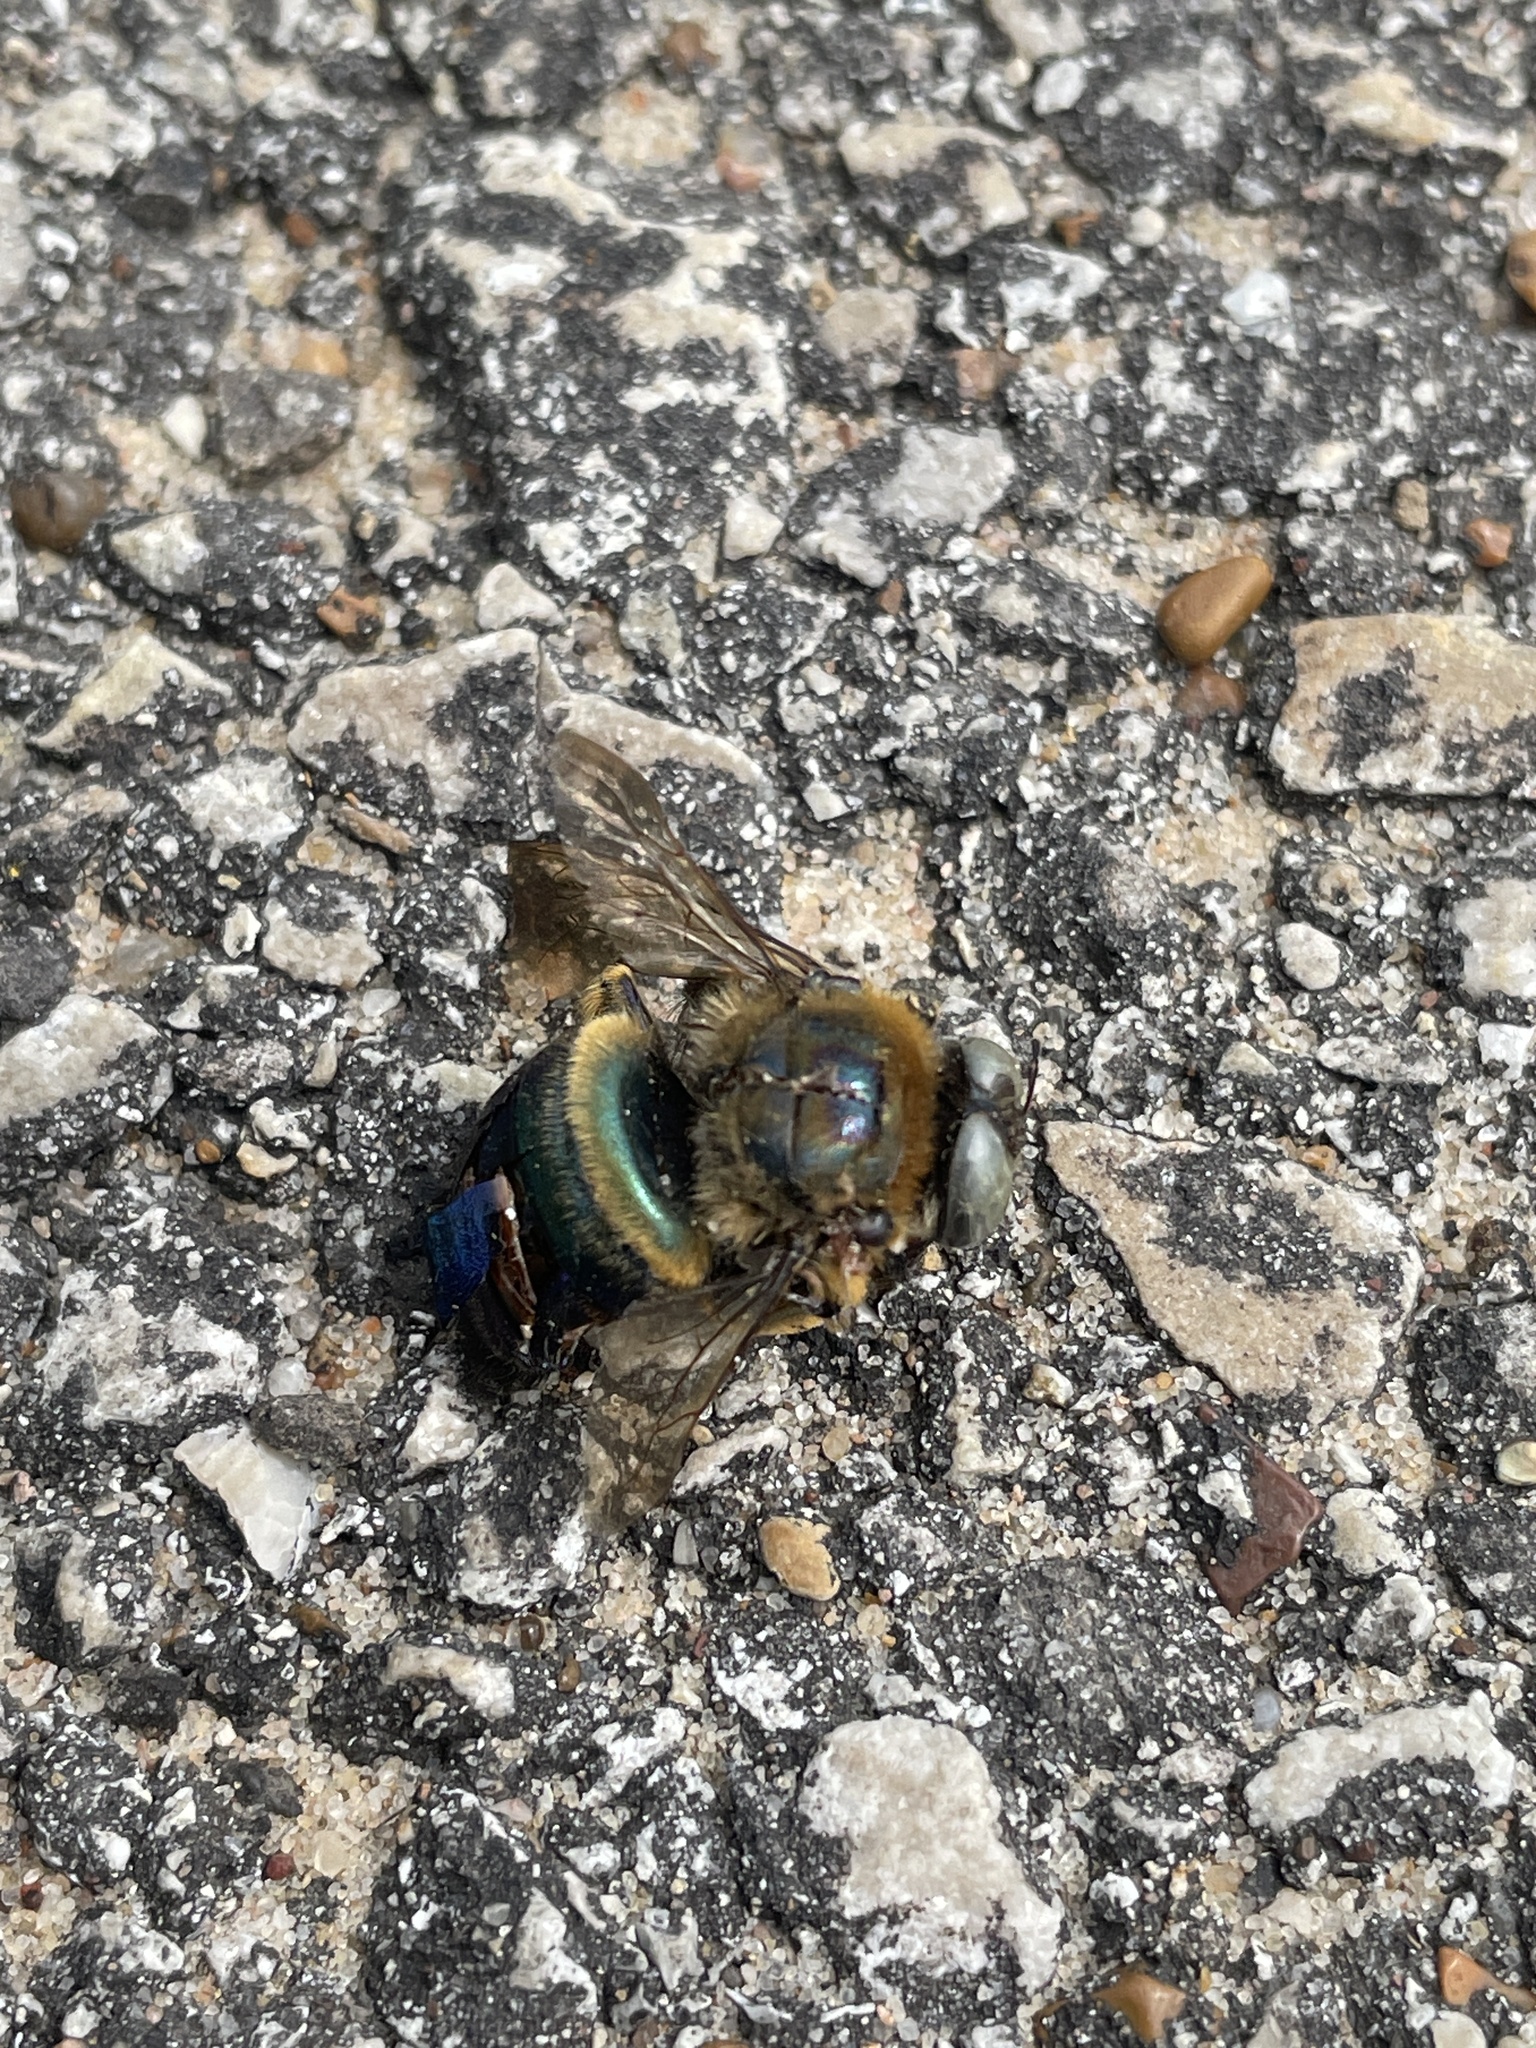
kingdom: Animalia
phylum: Arthropoda
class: Insecta
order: Hymenoptera
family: Apidae
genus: Xylocopa
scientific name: Xylocopa micans
